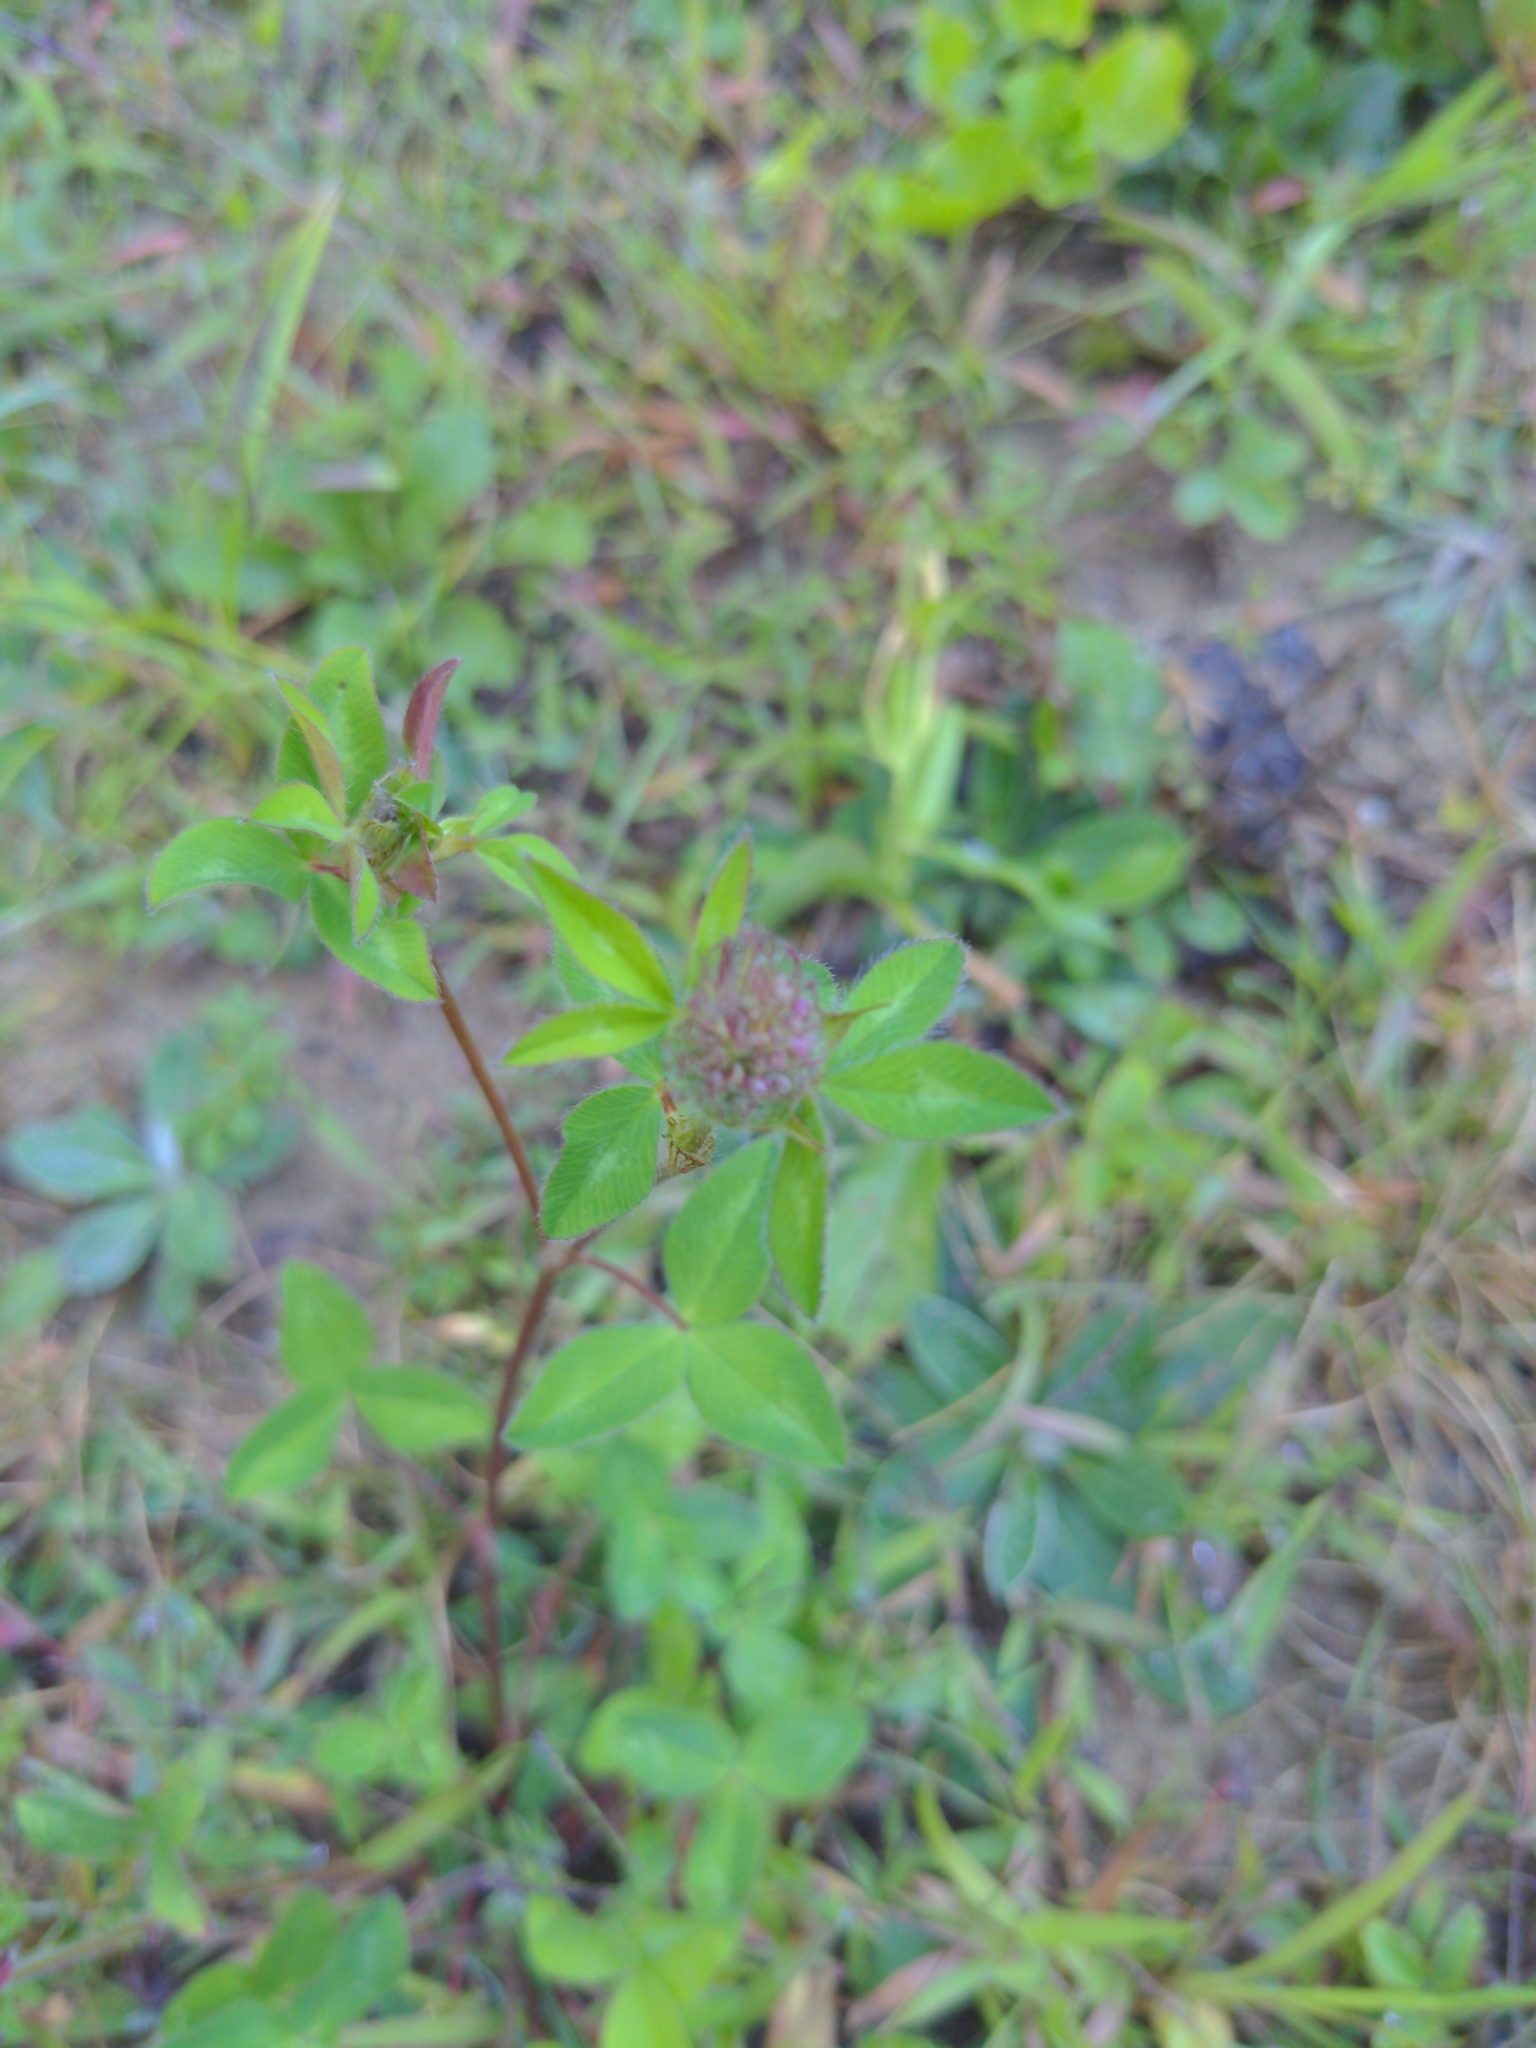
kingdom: Plantae
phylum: Tracheophyta
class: Magnoliopsida
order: Fabales
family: Fabaceae
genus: Trifolium
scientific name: Trifolium pratense
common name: Red clover
